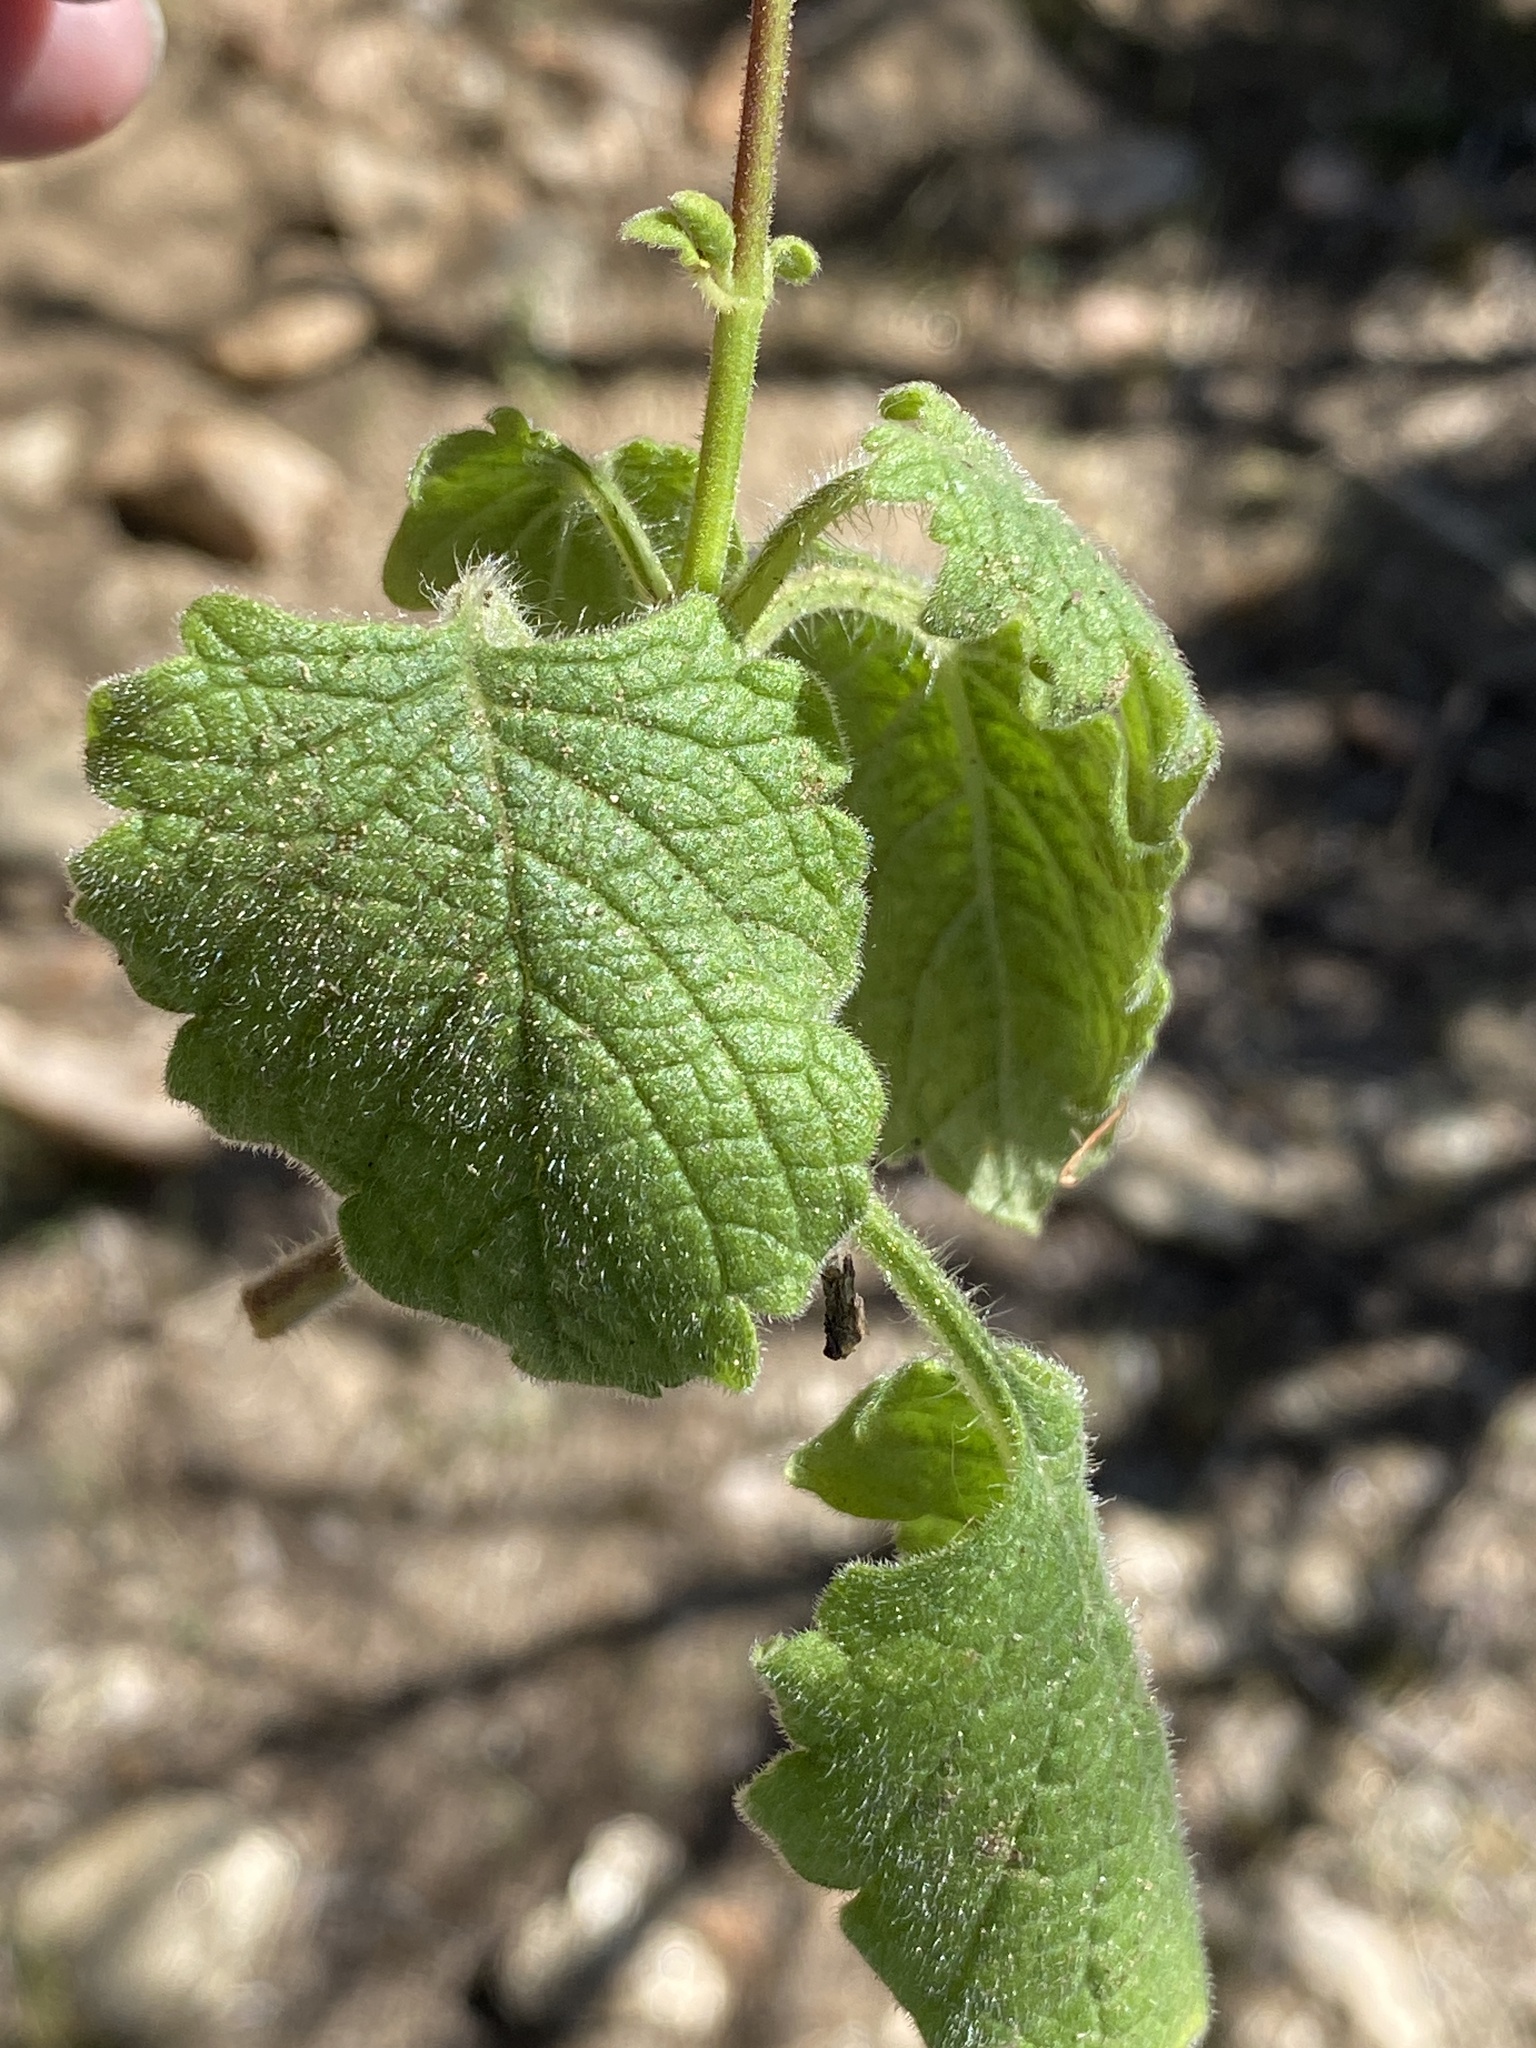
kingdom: Plantae
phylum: Tracheophyta
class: Magnoliopsida
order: Lamiales
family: Lamiaceae
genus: Coleus
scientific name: Coleus hadiensis
